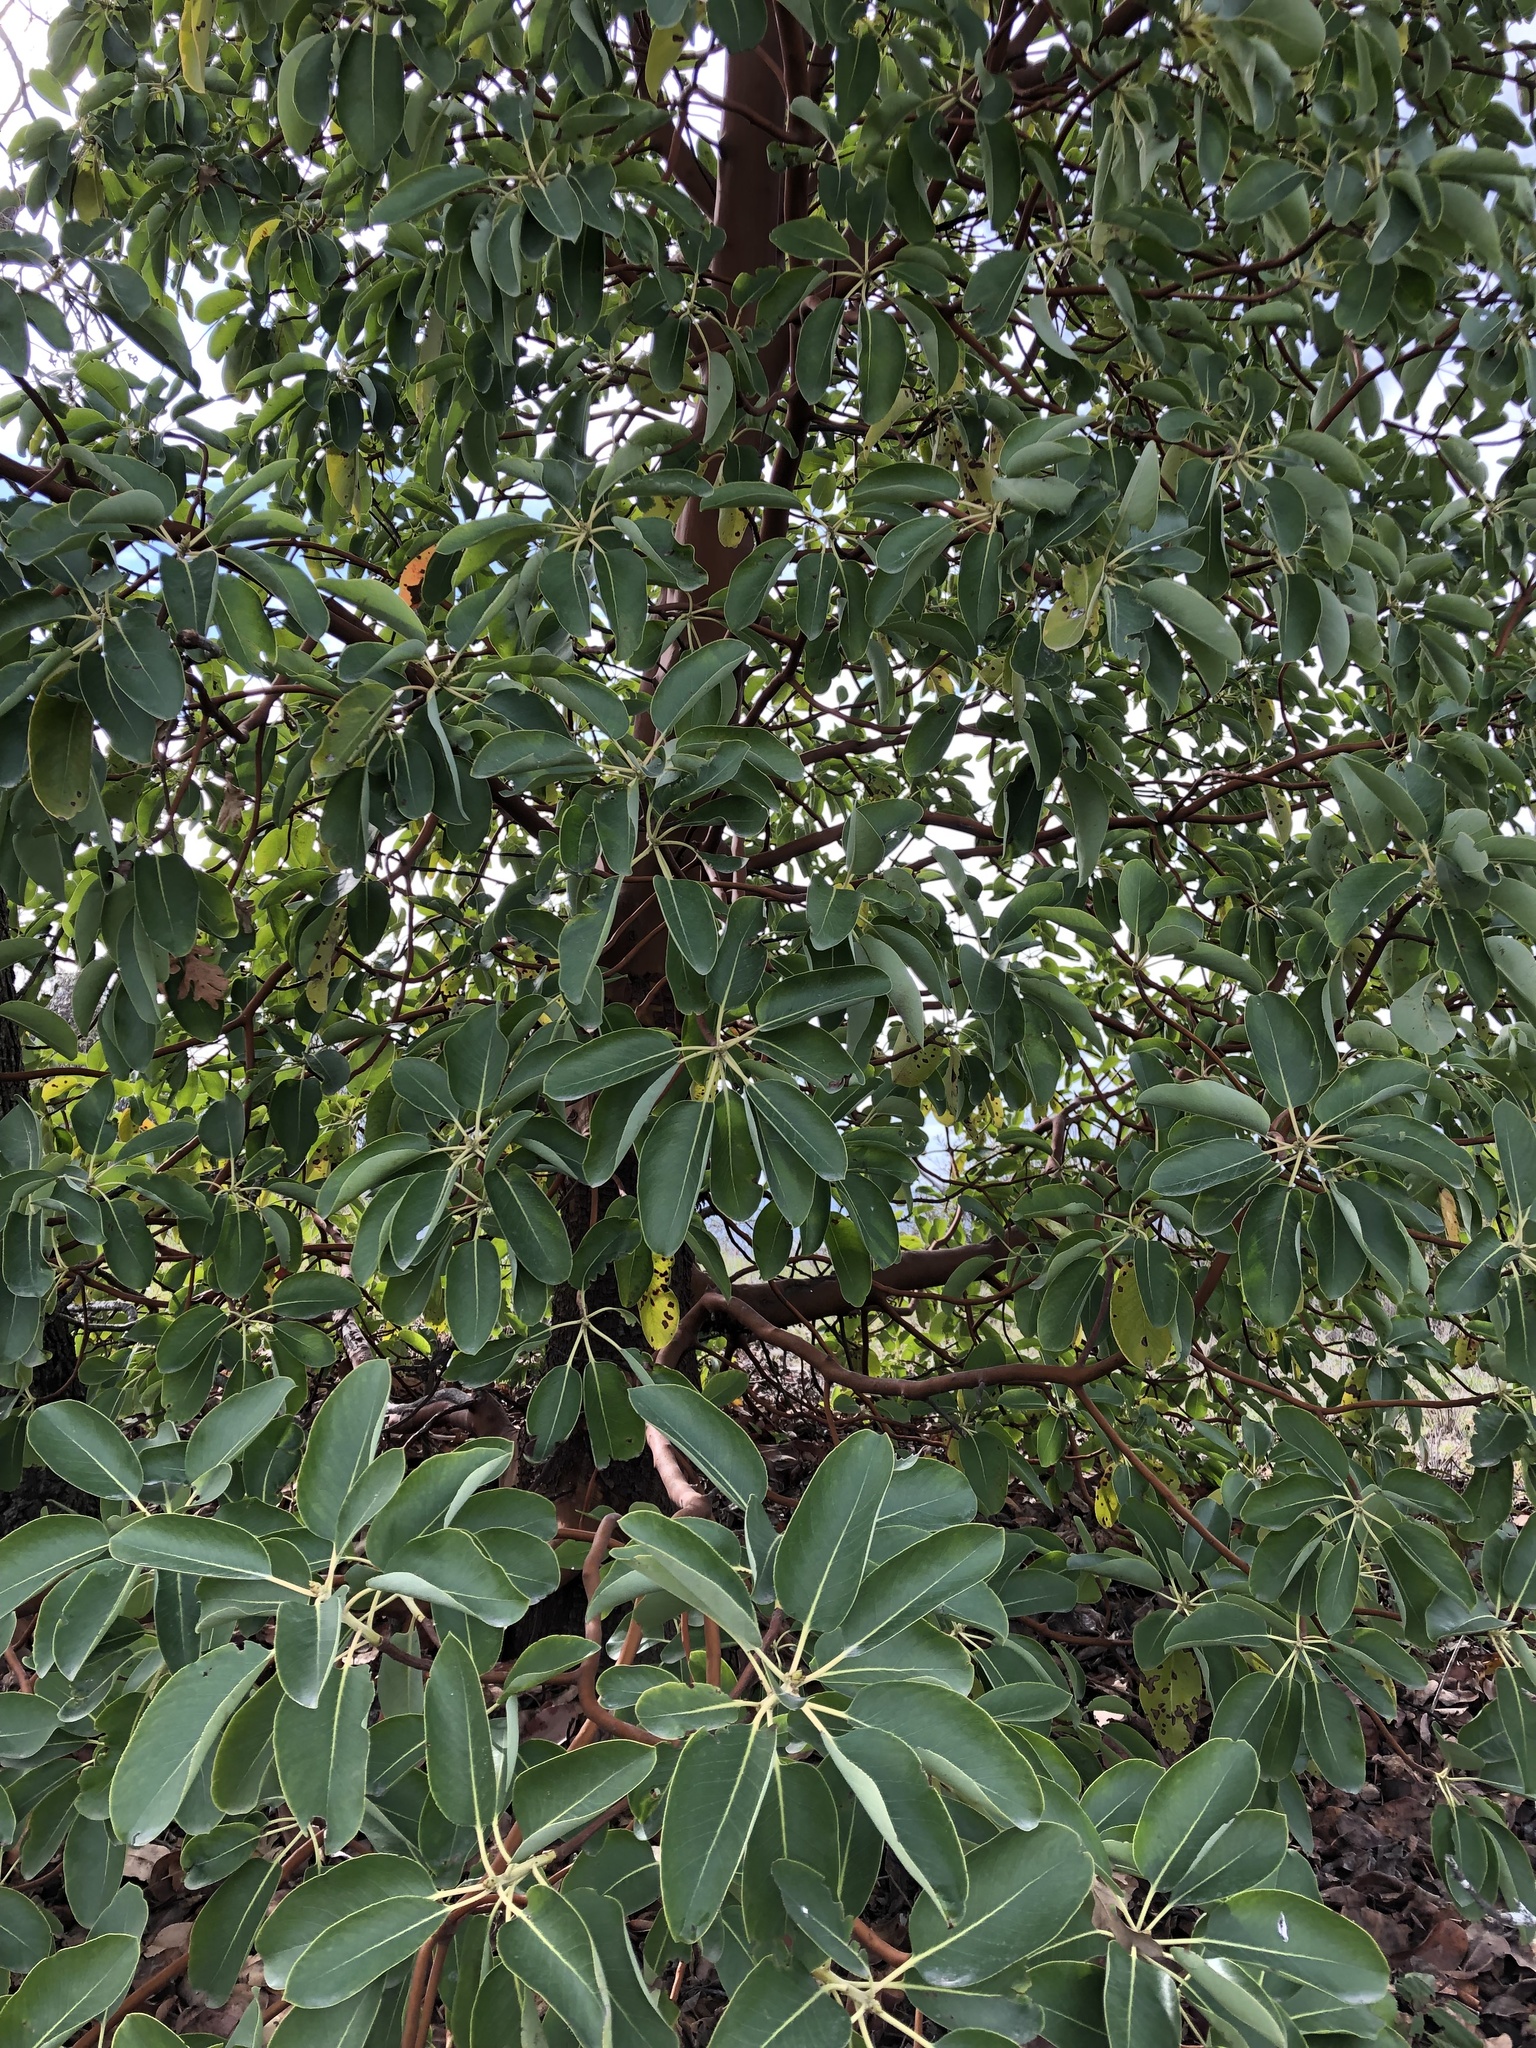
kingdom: Plantae
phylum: Tracheophyta
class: Magnoliopsida
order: Ericales
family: Ericaceae
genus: Arbutus
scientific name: Arbutus menziesii
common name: Pacific madrone
